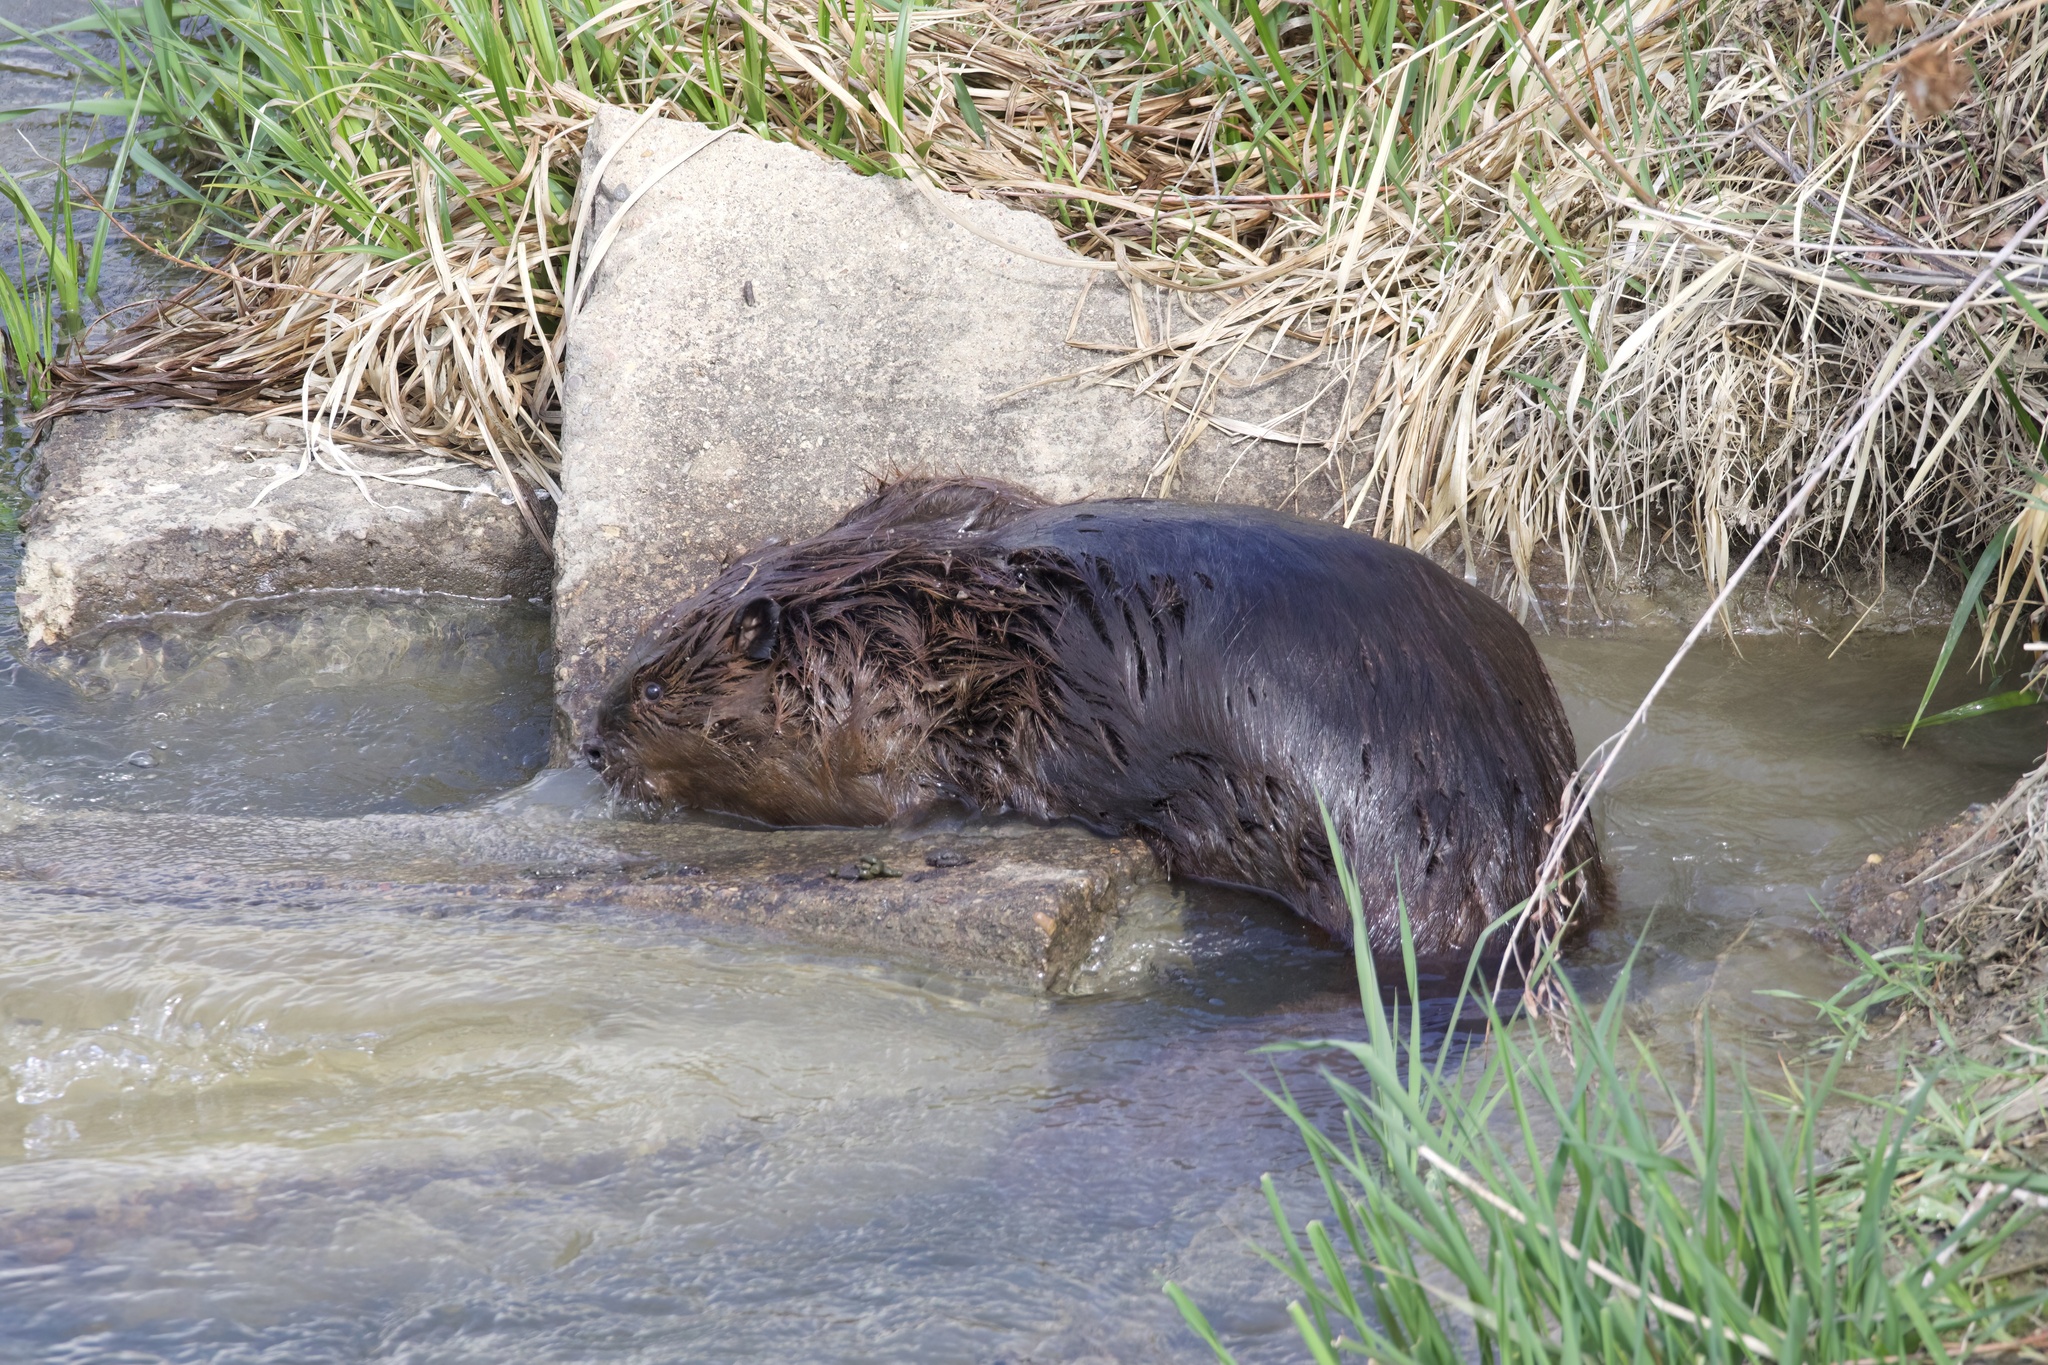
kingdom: Animalia
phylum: Chordata
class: Mammalia
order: Rodentia
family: Castoridae
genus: Castor
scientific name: Castor canadensis
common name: American beaver
